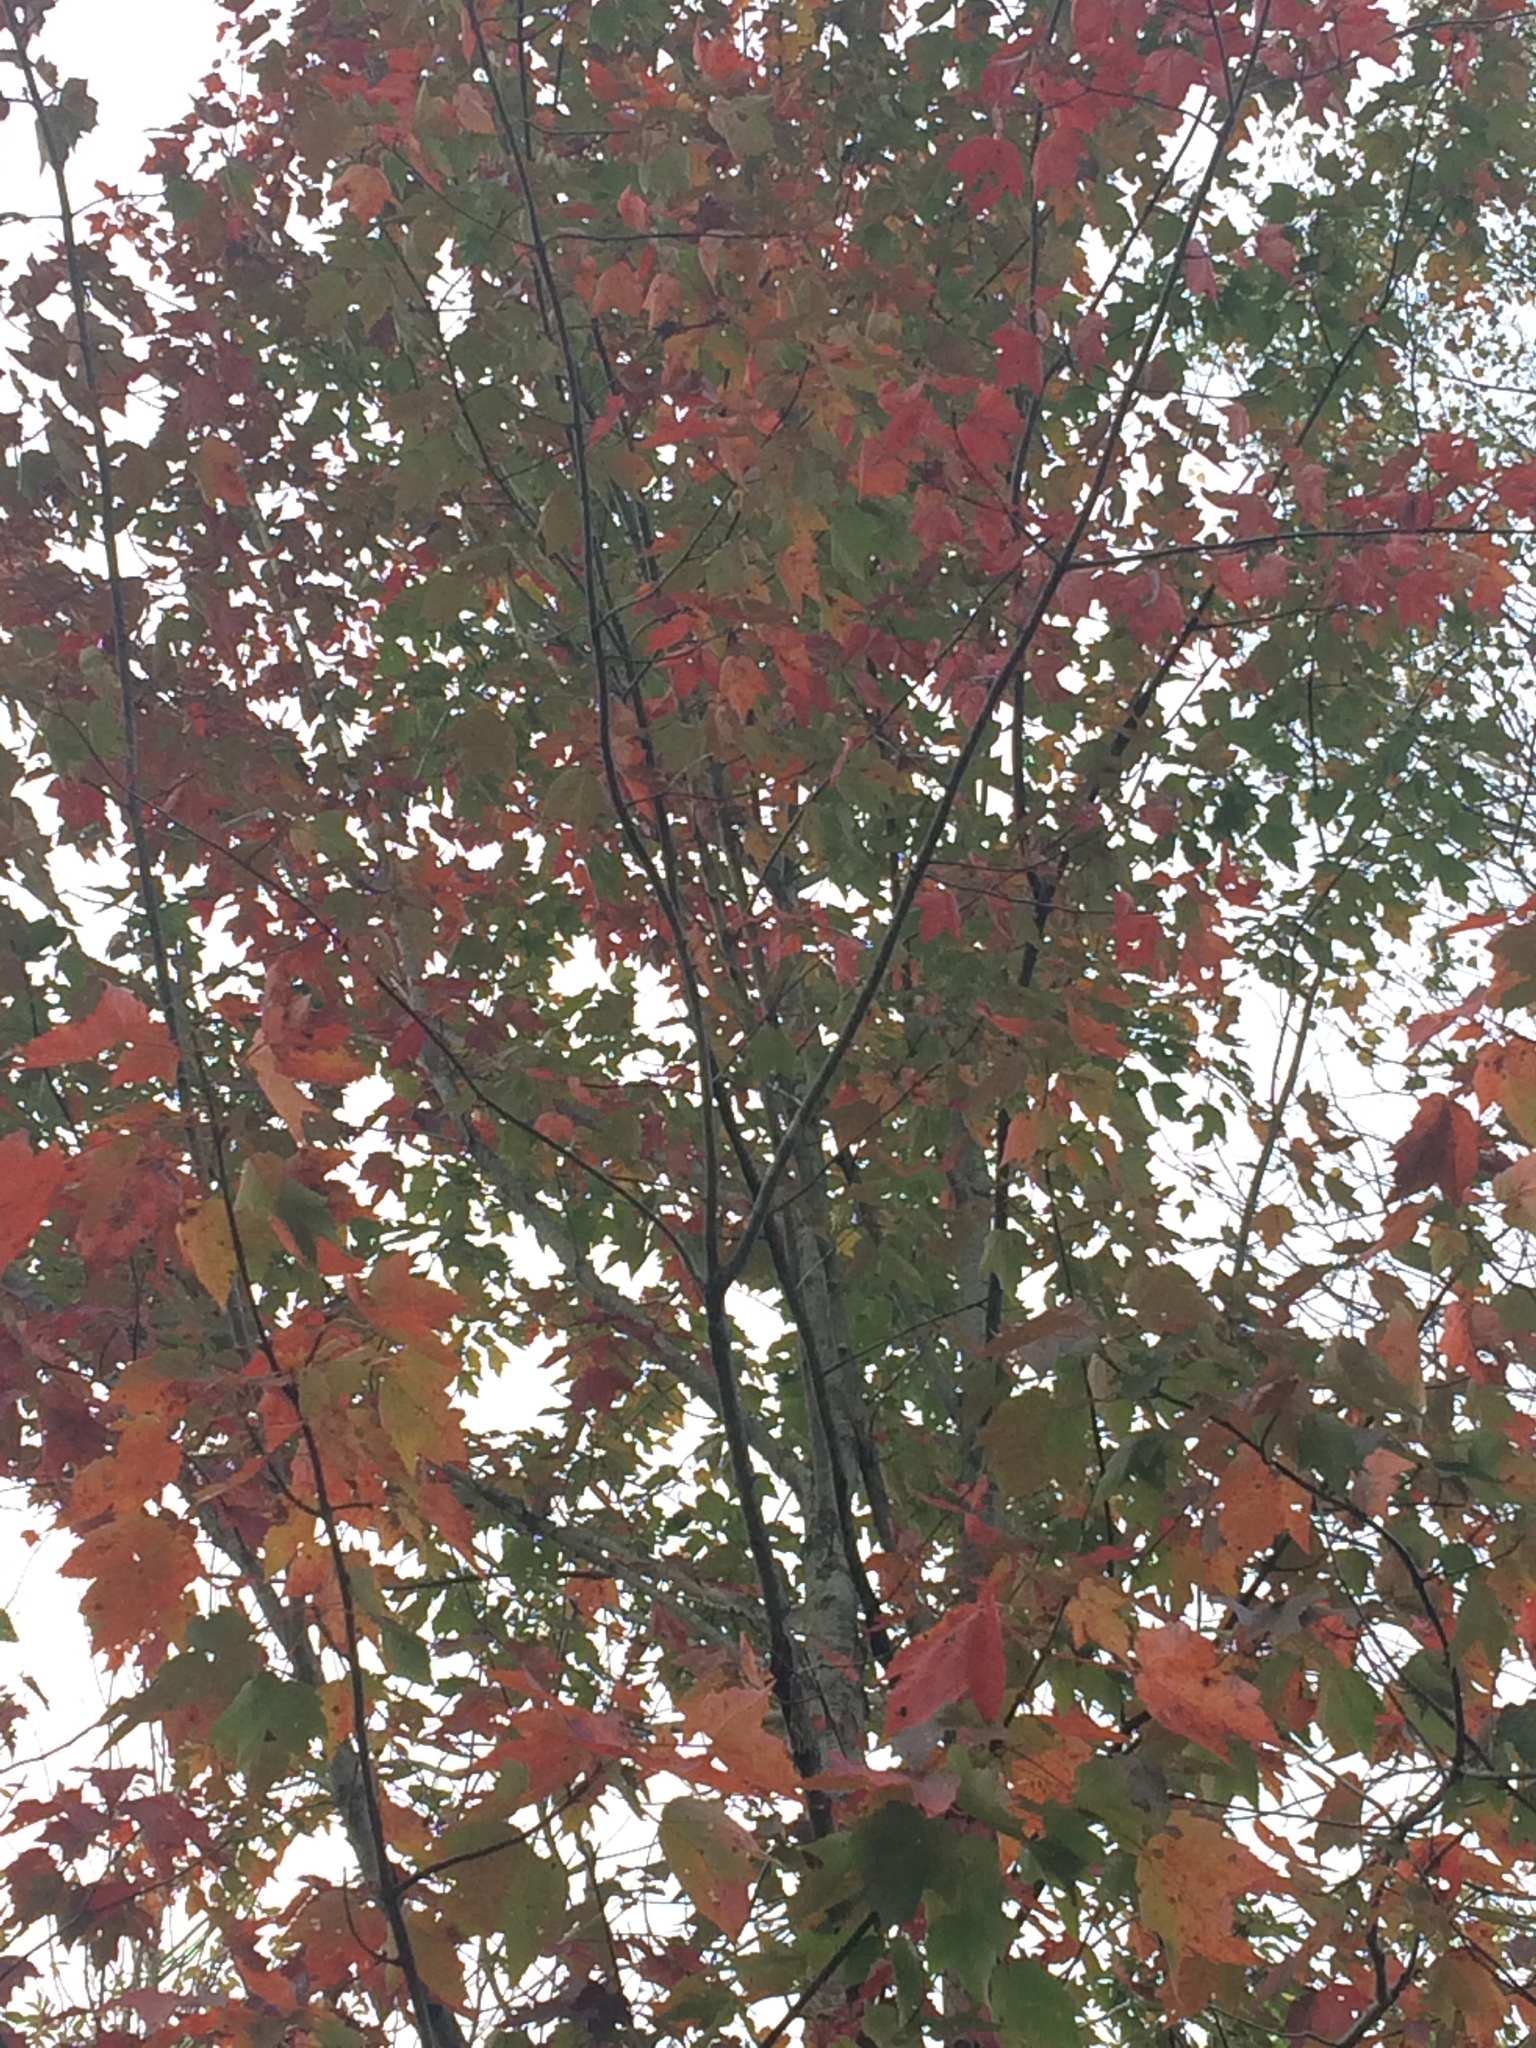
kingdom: Plantae
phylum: Tracheophyta
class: Magnoliopsida
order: Sapindales
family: Sapindaceae
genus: Acer
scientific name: Acer rubrum
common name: Red maple
